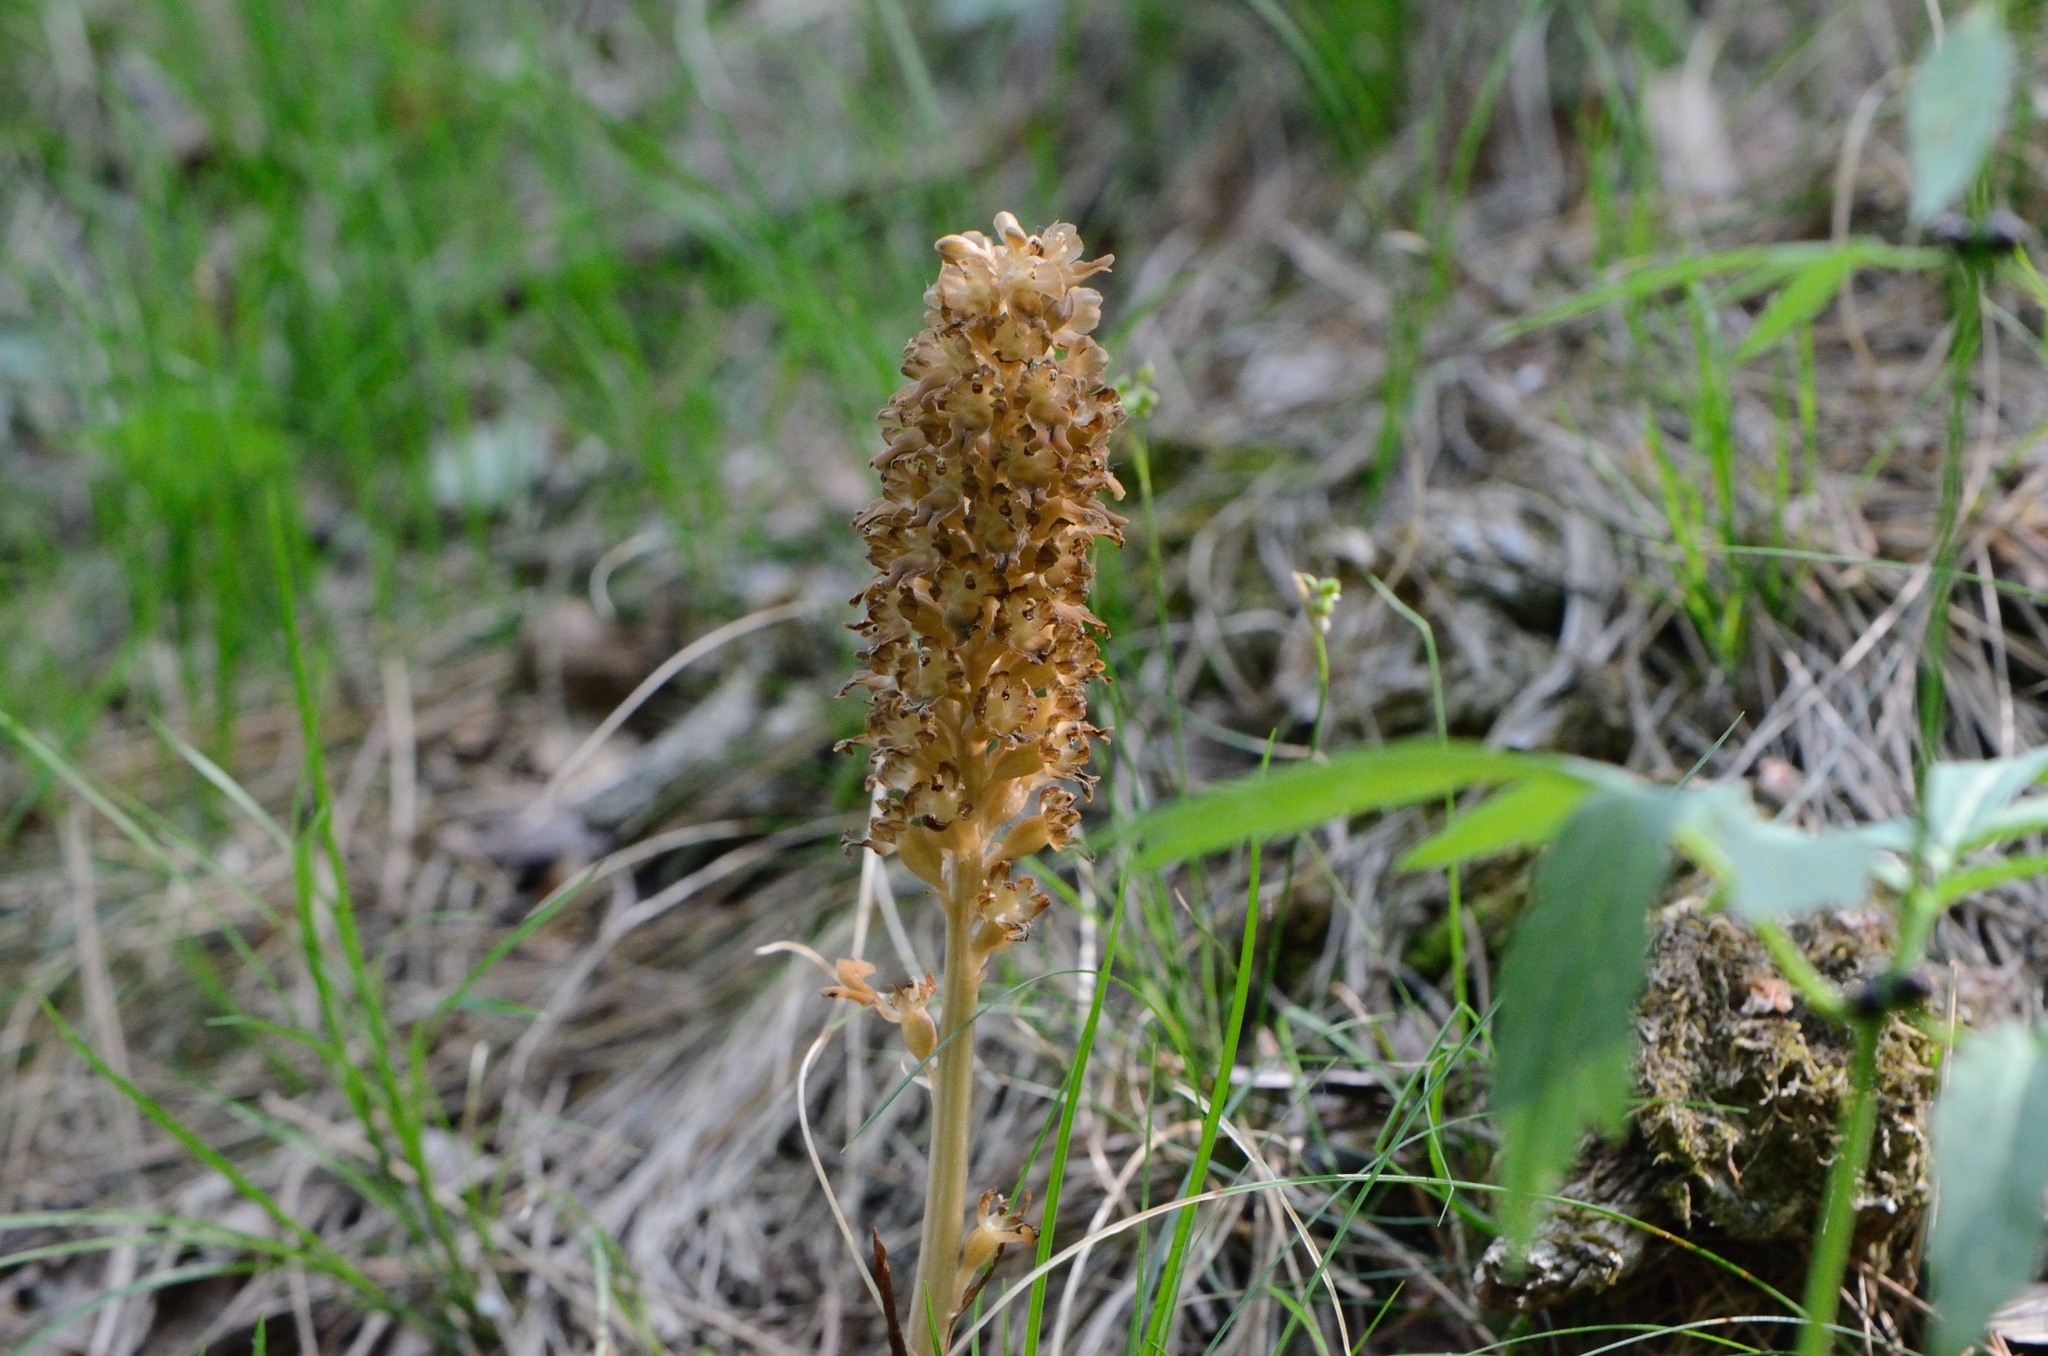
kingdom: Plantae
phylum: Tracheophyta
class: Liliopsida
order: Asparagales
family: Orchidaceae
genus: Neottia
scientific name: Neottia nidus-avis
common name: Bird's-nest orchid
